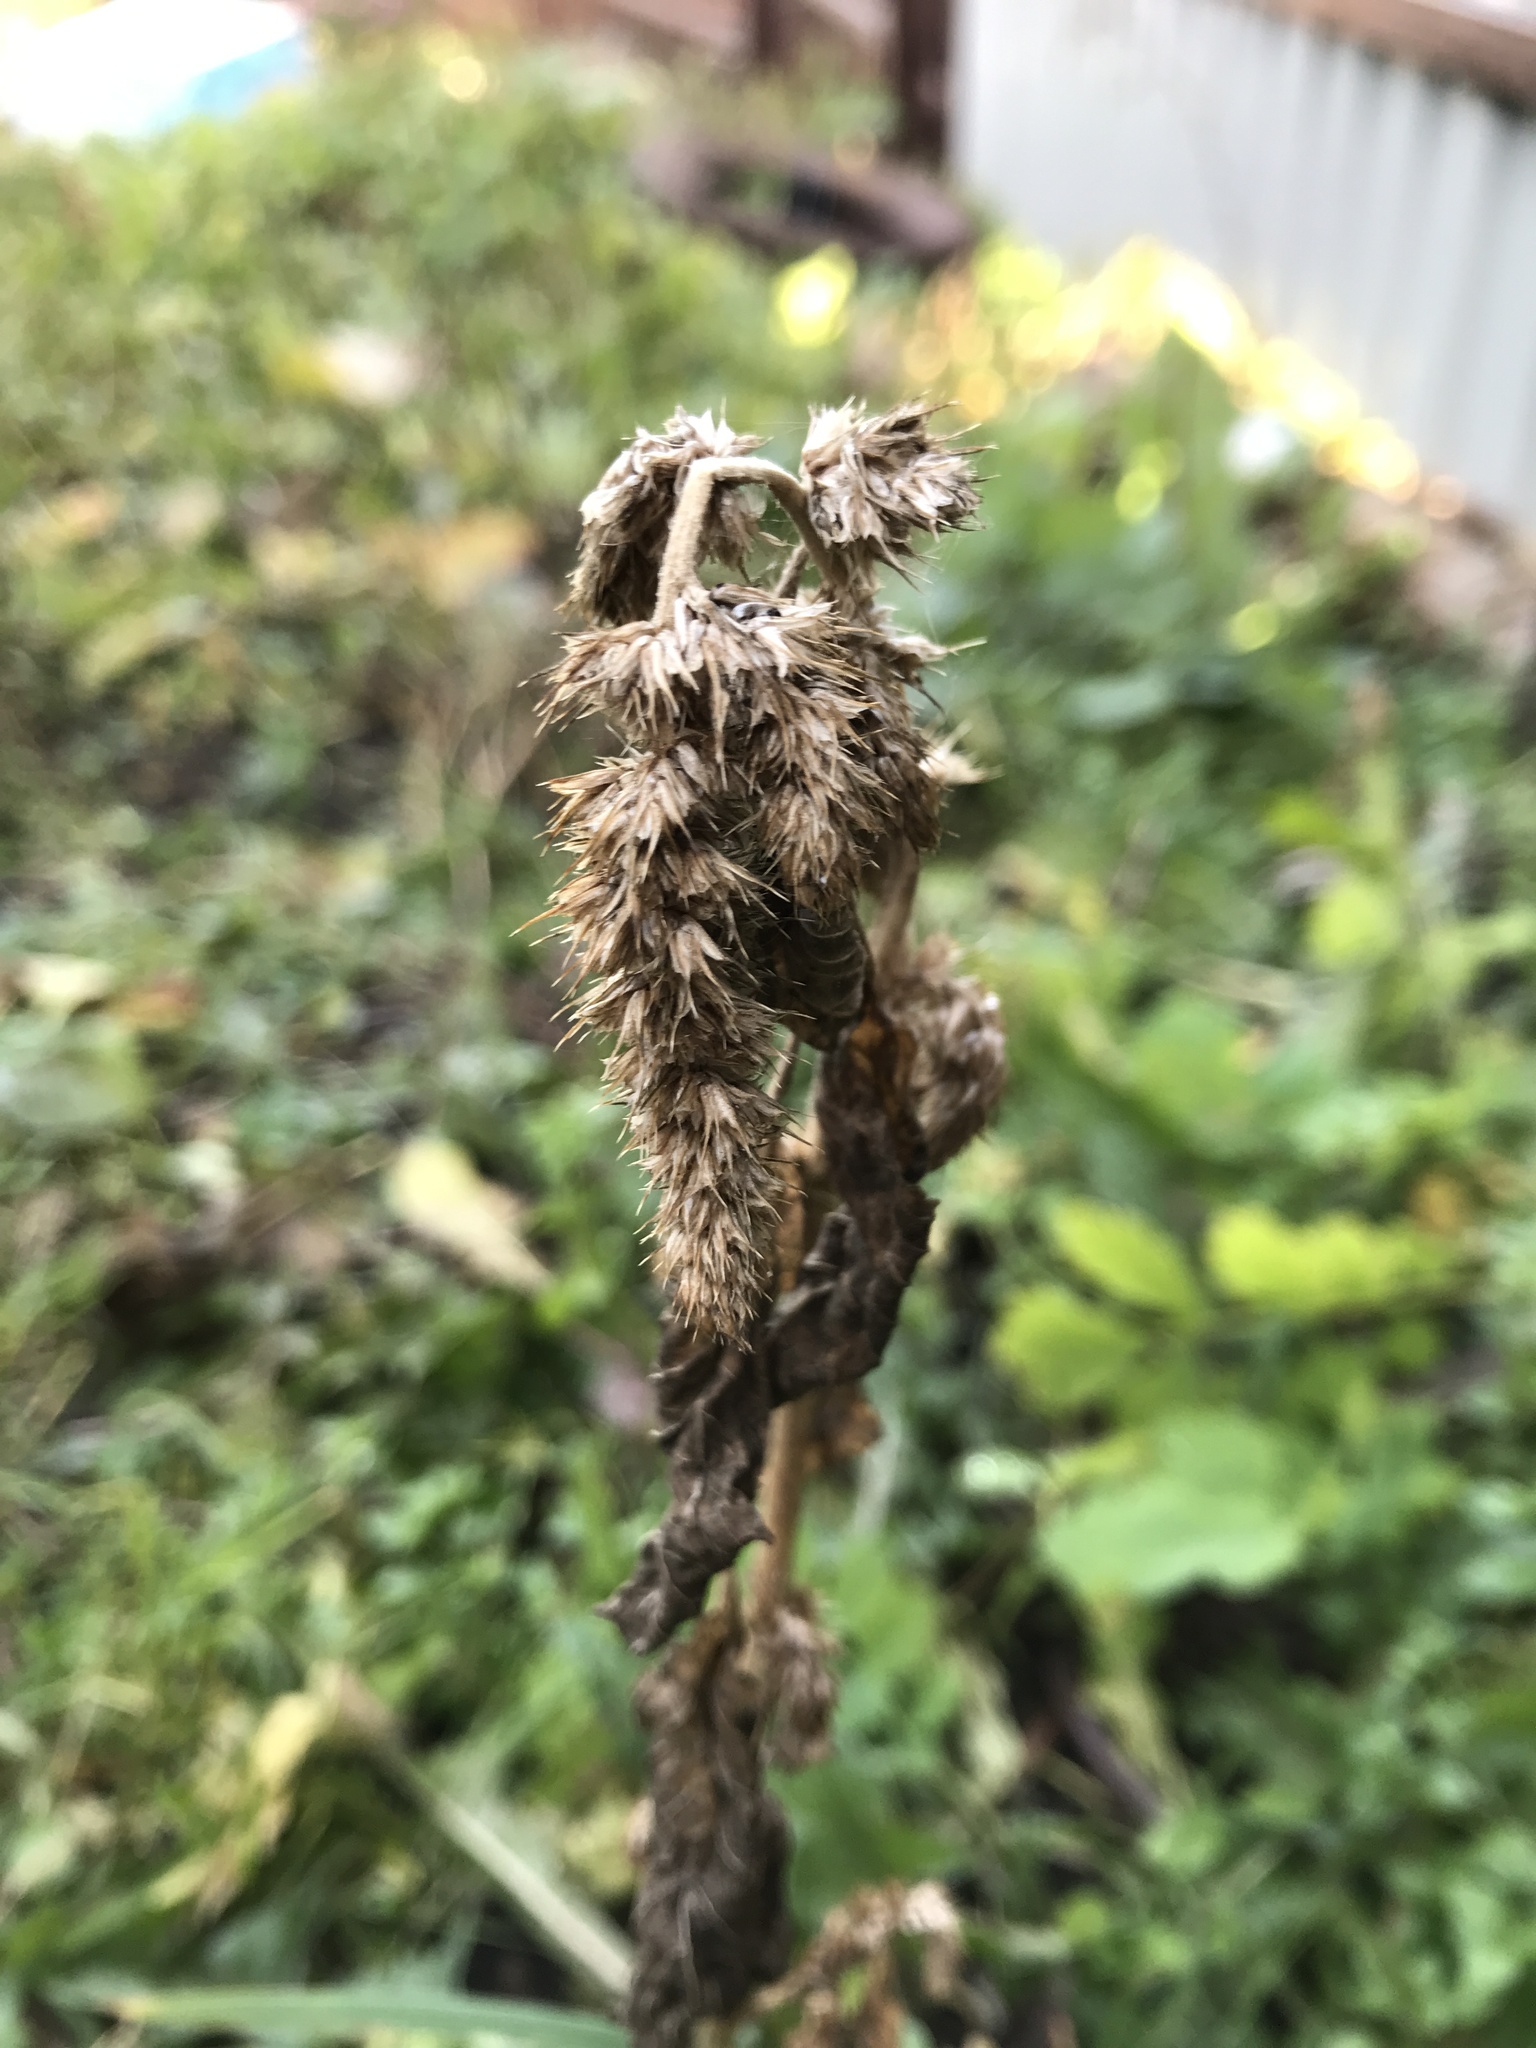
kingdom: Plantae
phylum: Tracheophyta
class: Magnoliopsida
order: Caryophyllales
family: Amaranthaceae
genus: Amaranthus
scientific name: Amaranthus retroflexus
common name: Redroot amaranth
